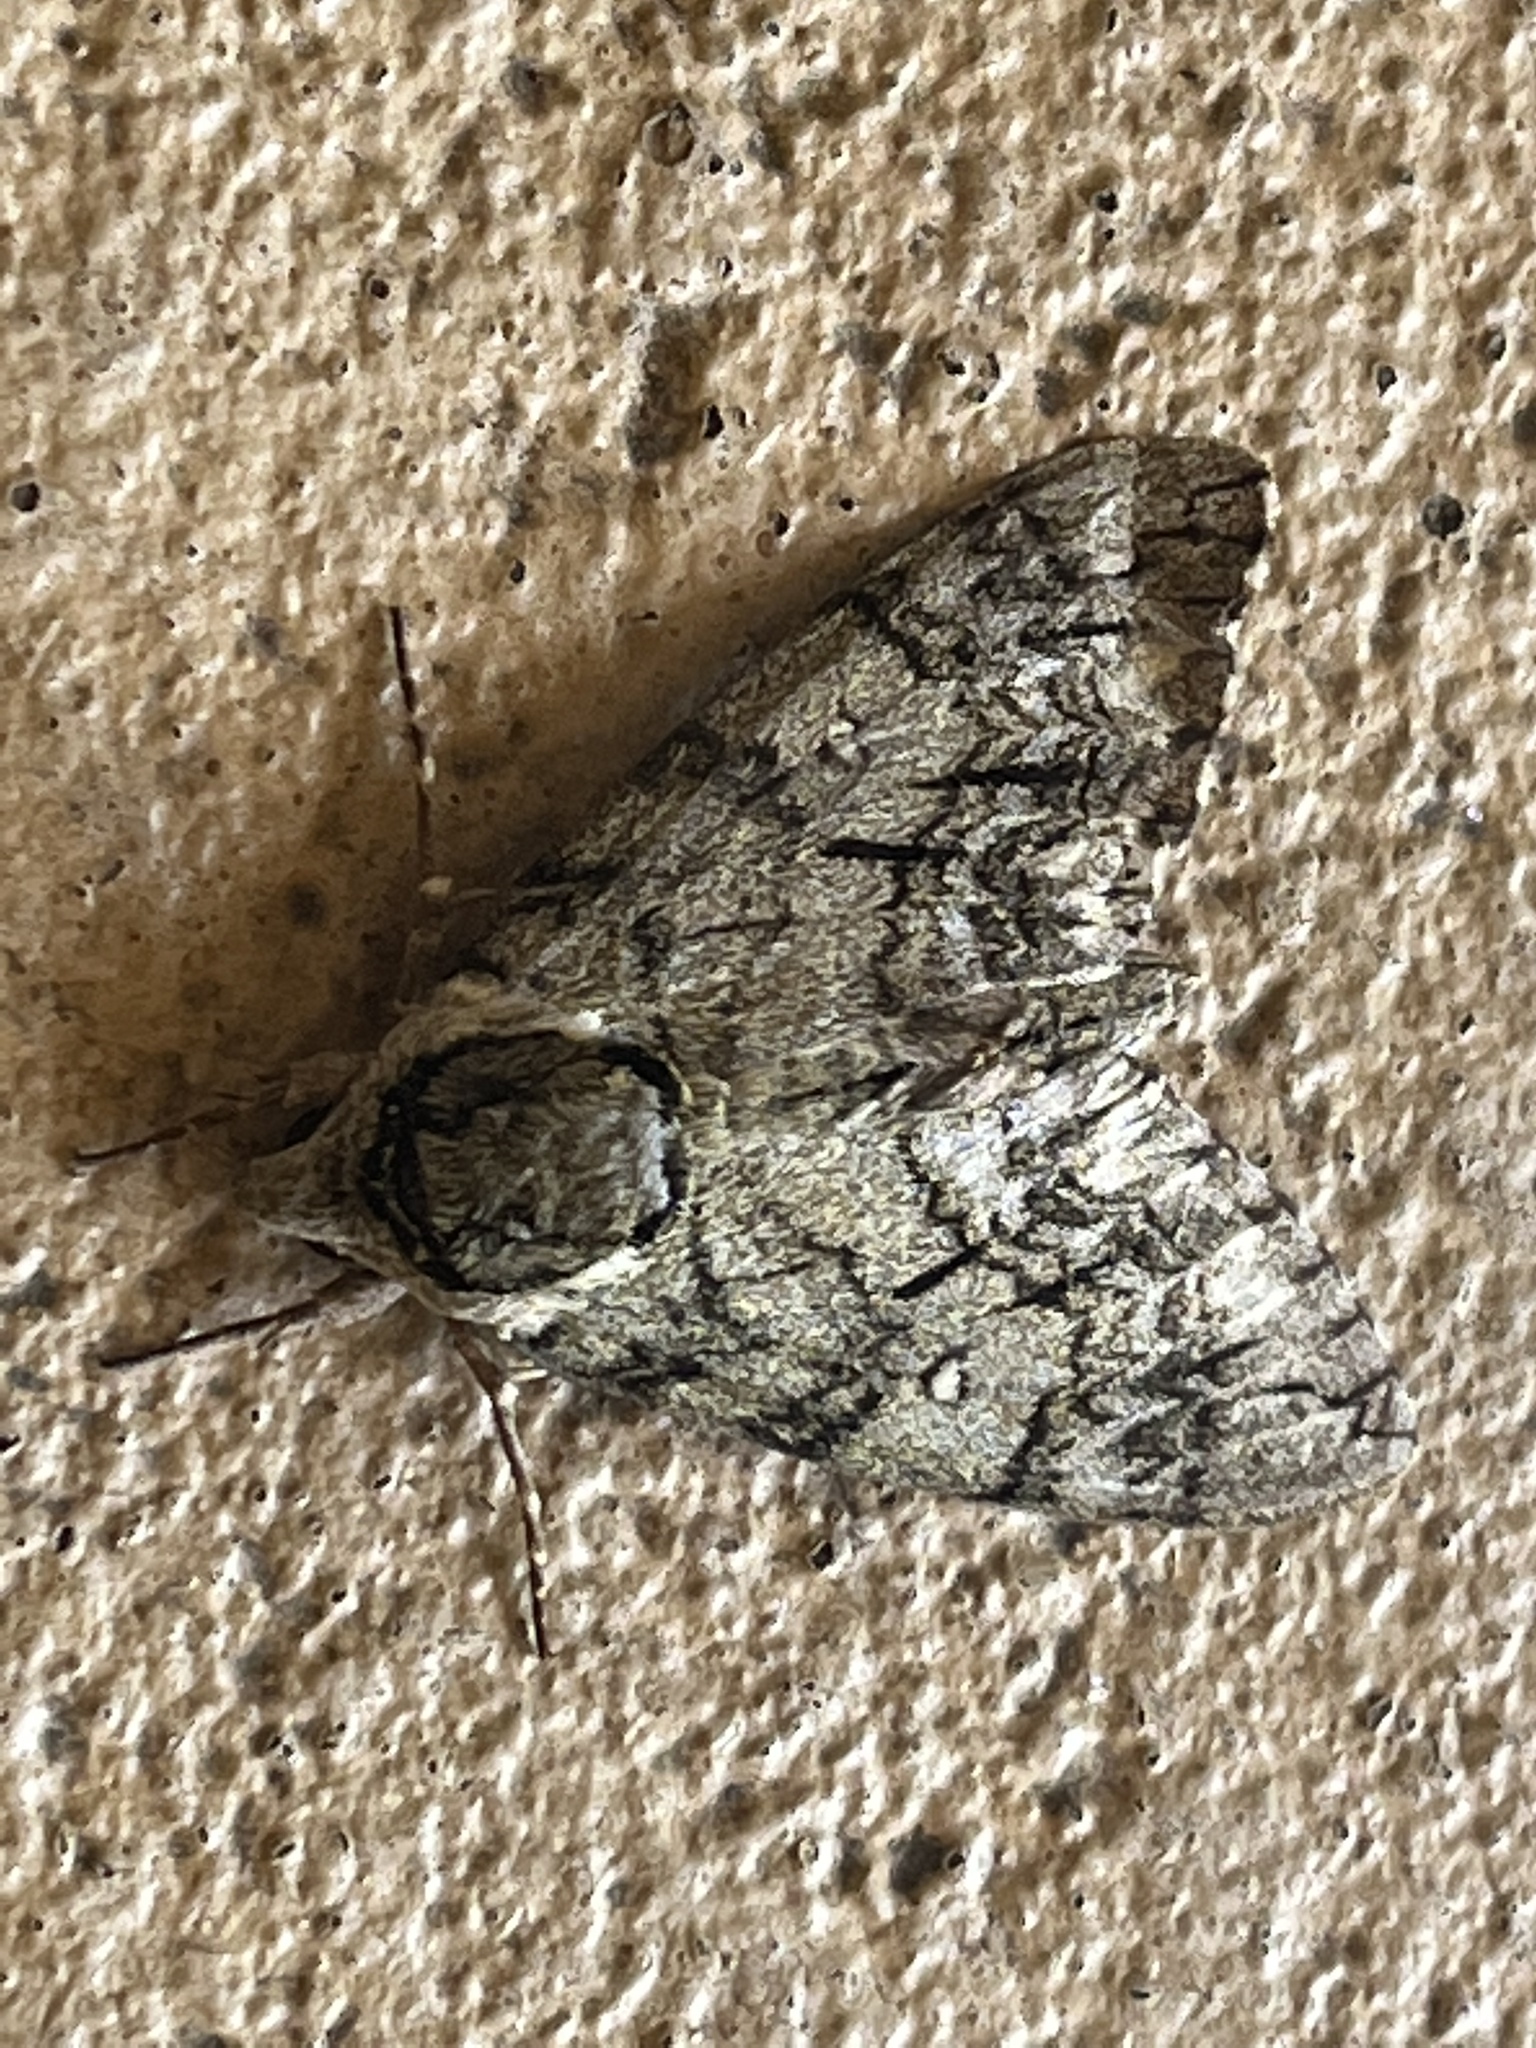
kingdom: Animalia
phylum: Arthropoda
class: Insecta
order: Lepidoptera
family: Sphingidae
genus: Ceratomia
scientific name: Ceratomia undulosa
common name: Waved sphinx
